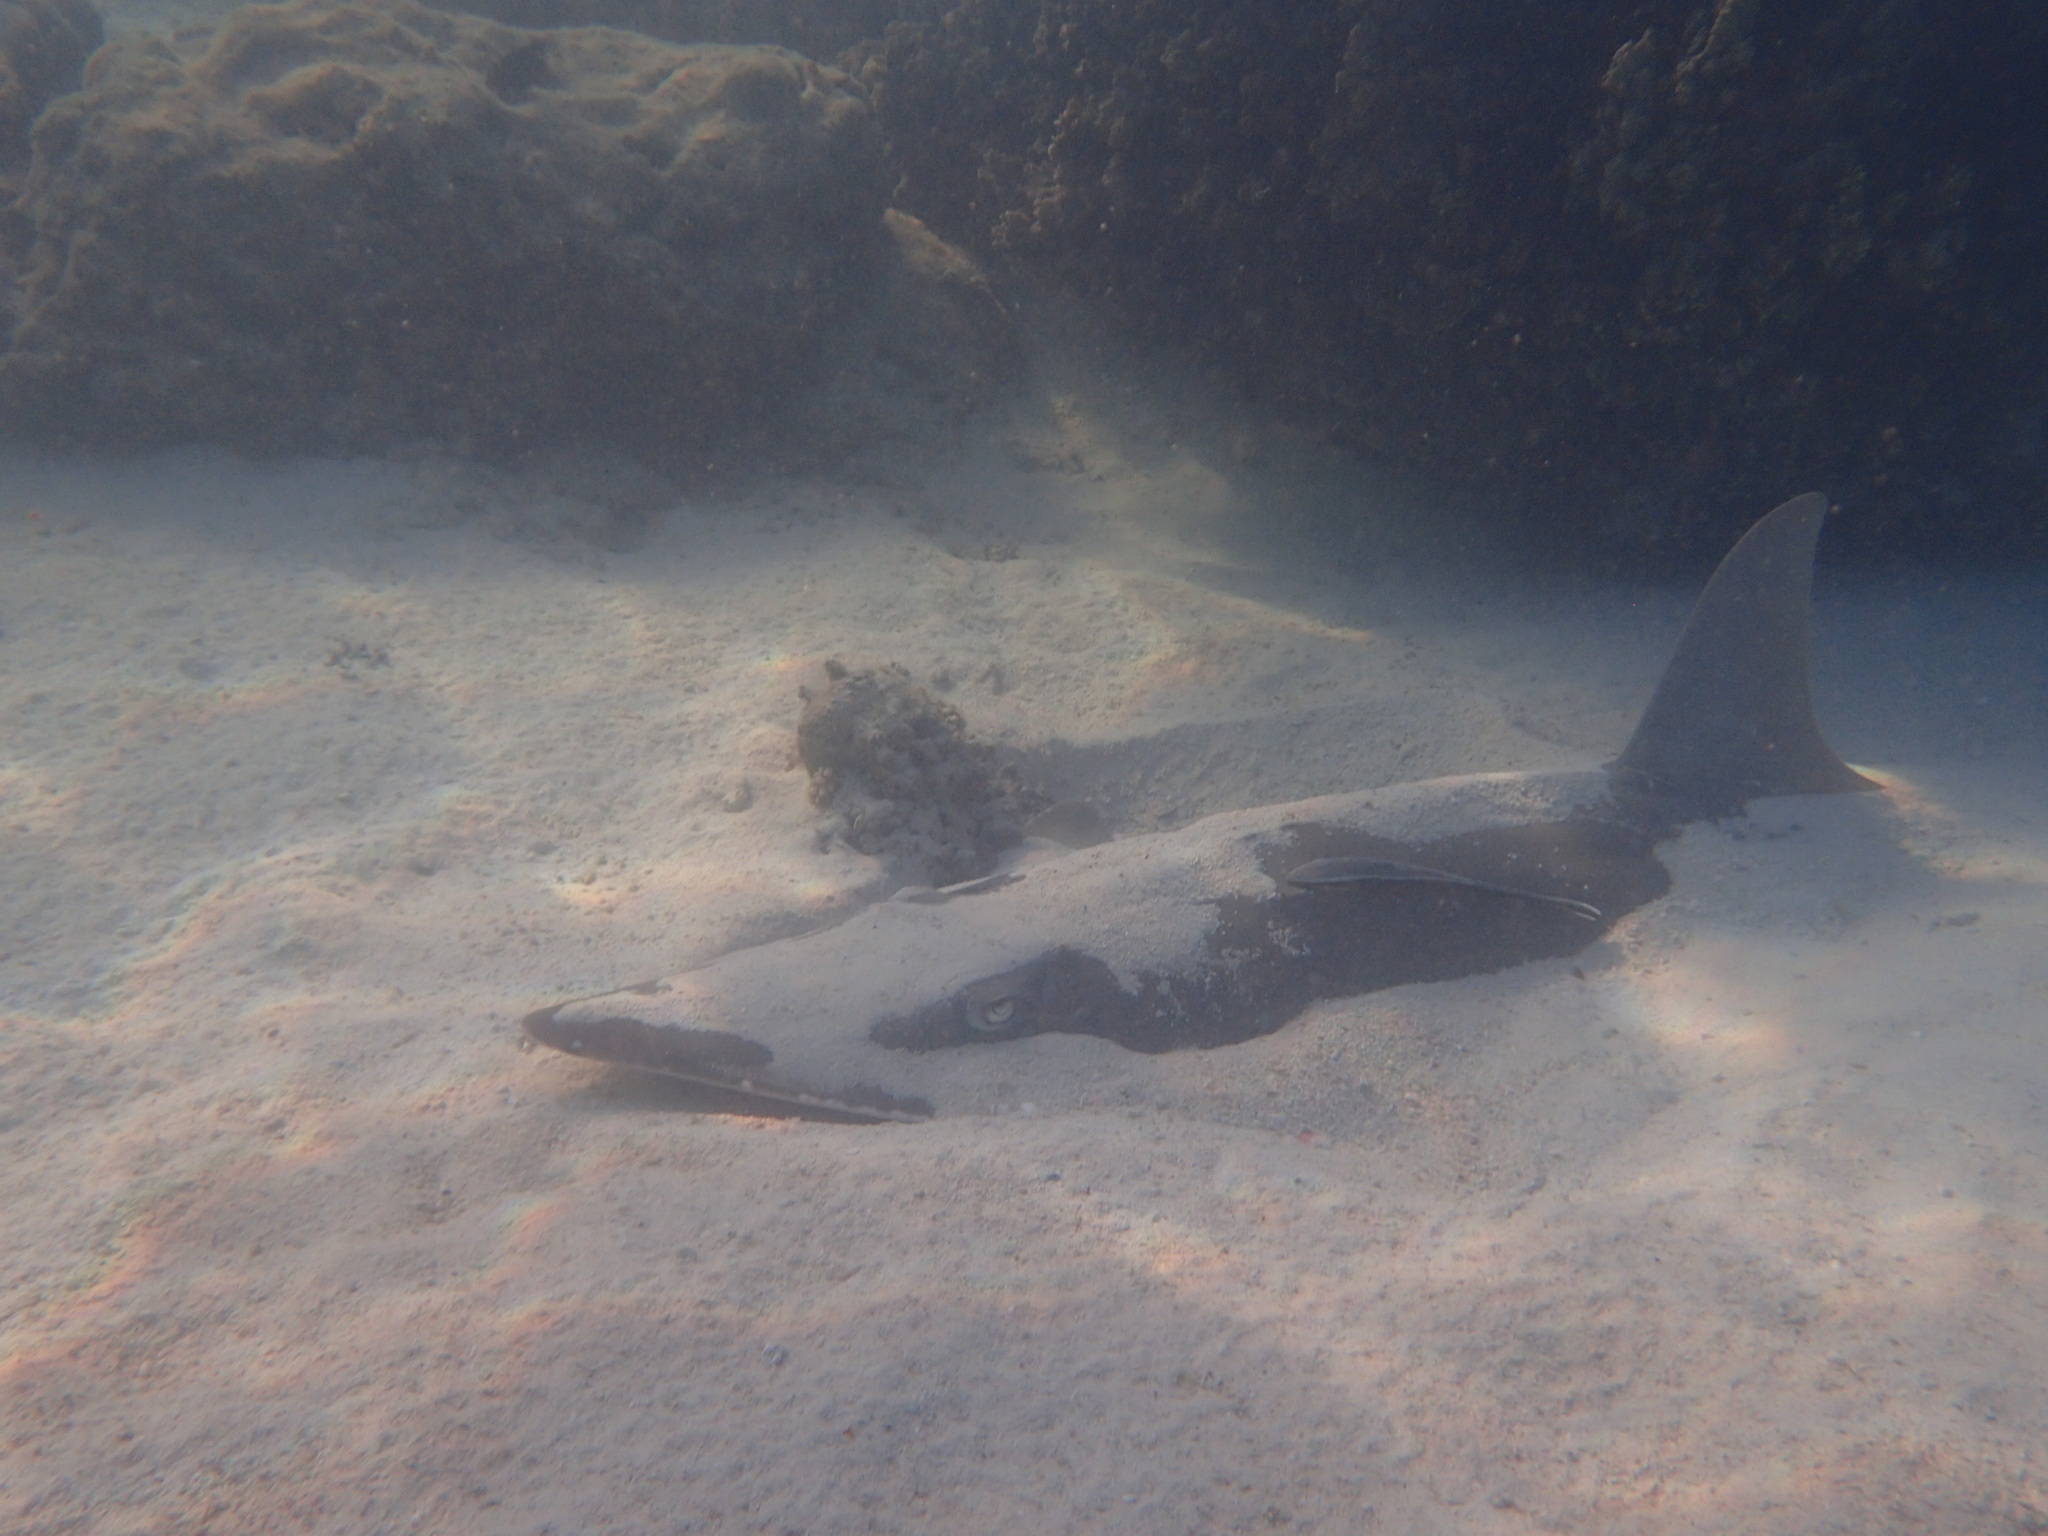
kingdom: Animalia
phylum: Chordata
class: Elasmobranchii
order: Rhinopristiformes
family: Rhinidae
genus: Rhynchobatus
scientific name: Rhynchobatus australiae
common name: Whitespotted wedgefish
